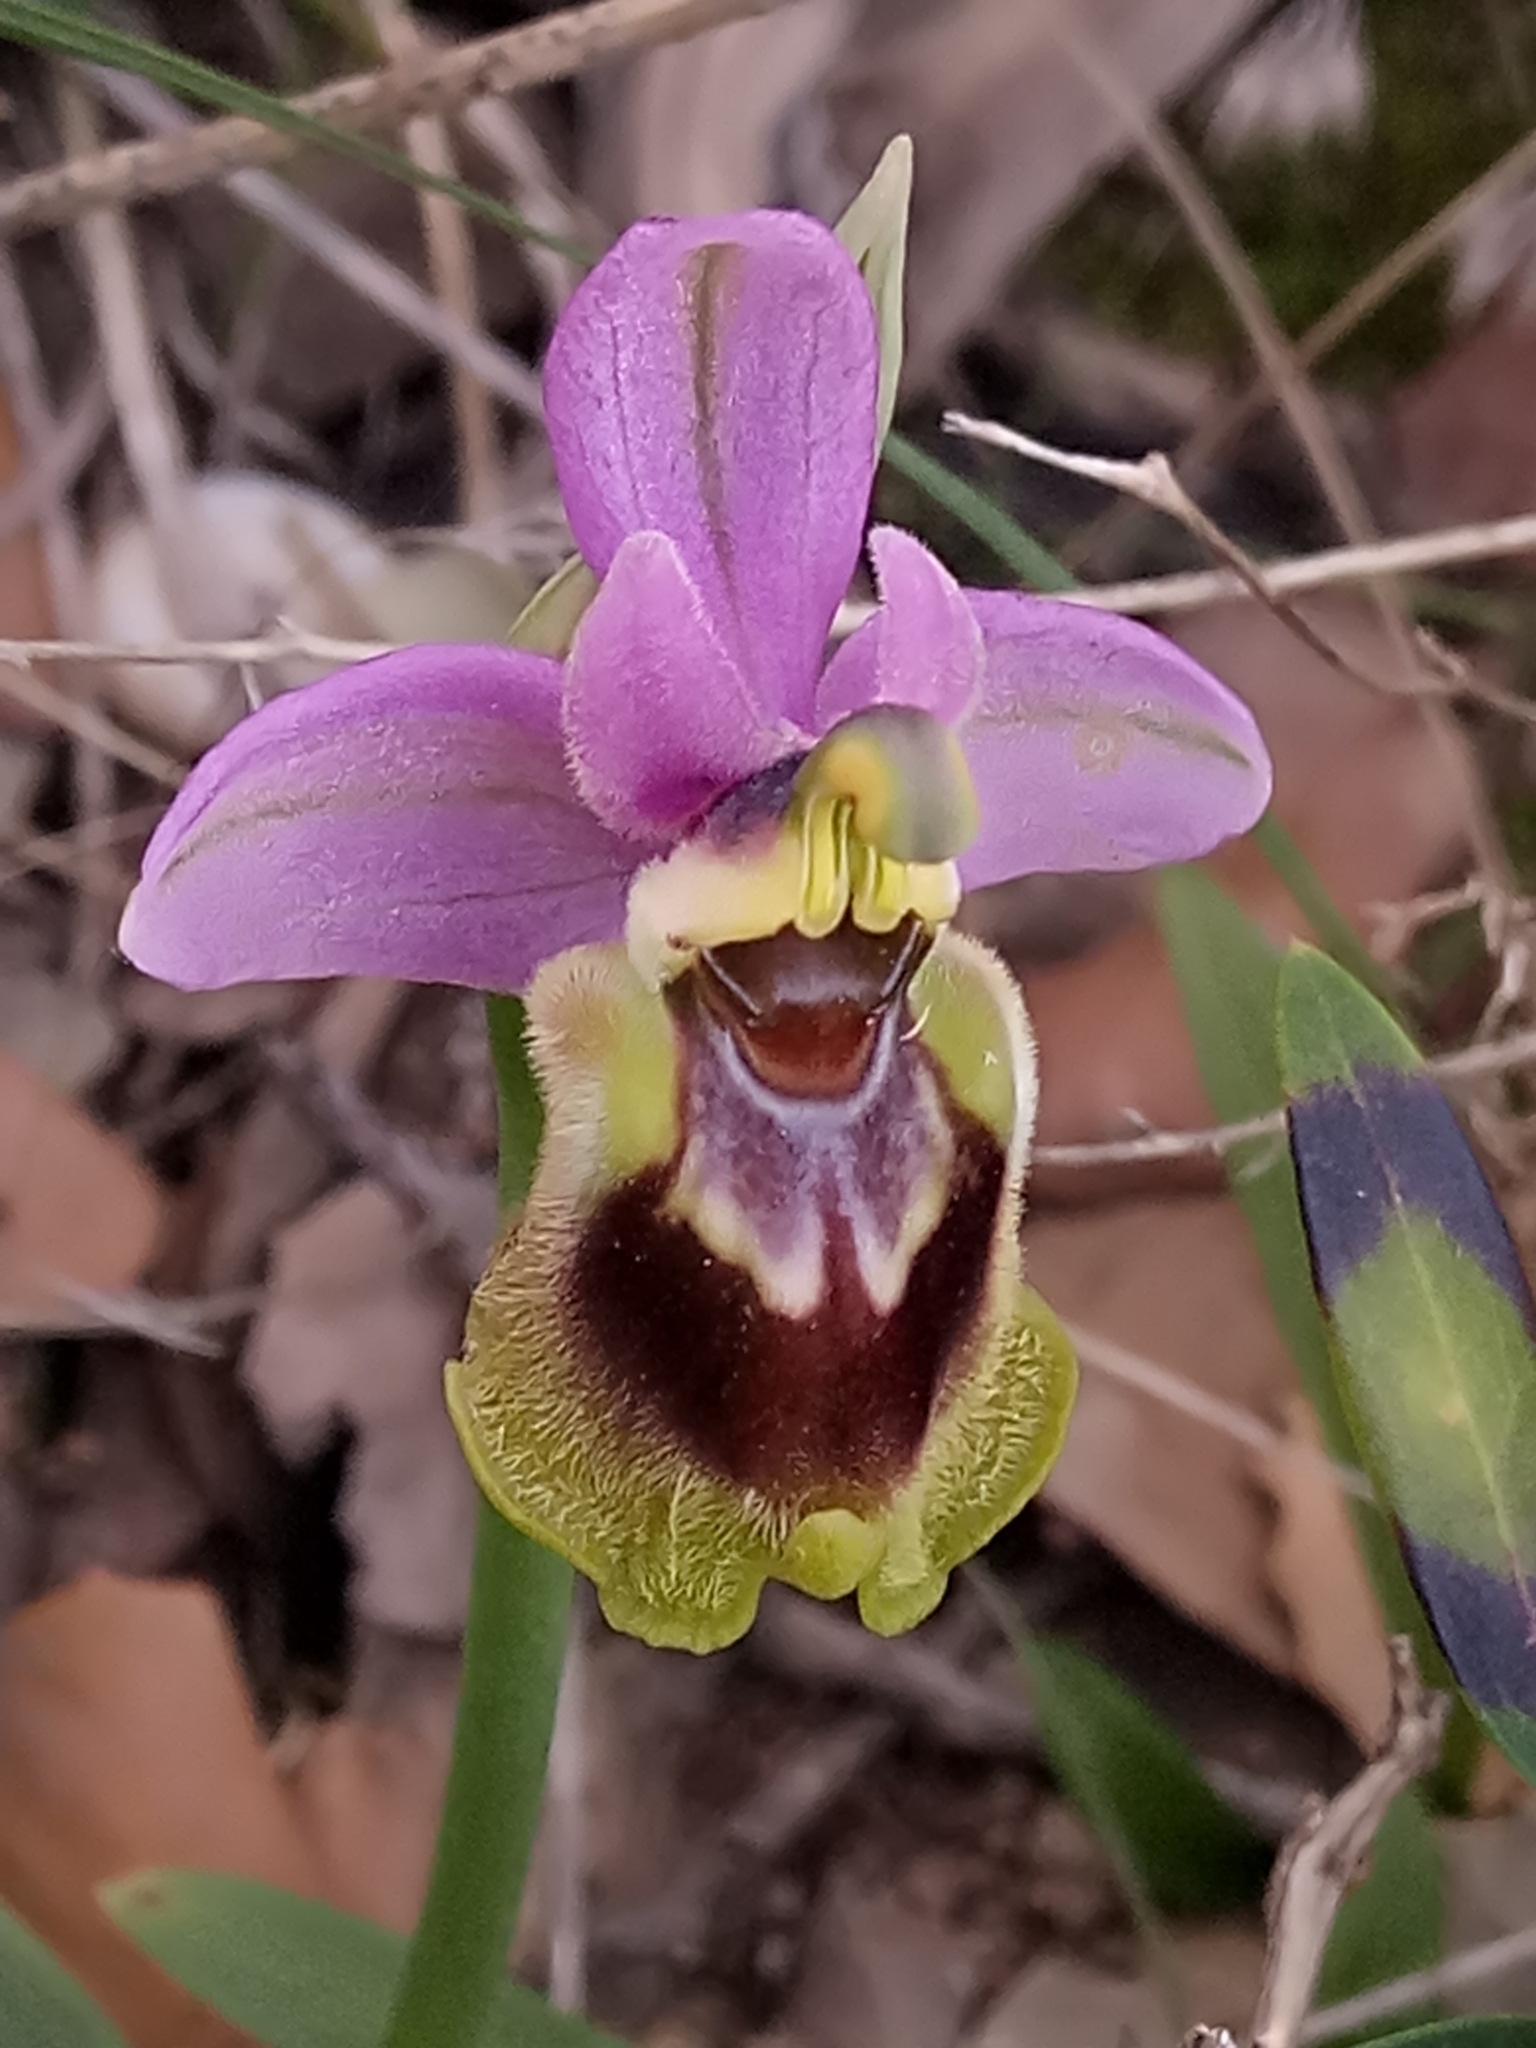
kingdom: Plantae
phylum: Tracheophyta
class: Liliopsida
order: Asparagales
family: Orchidaceae
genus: Ophrys
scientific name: Ophrys tenthredinifera
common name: Sawfly orchid
